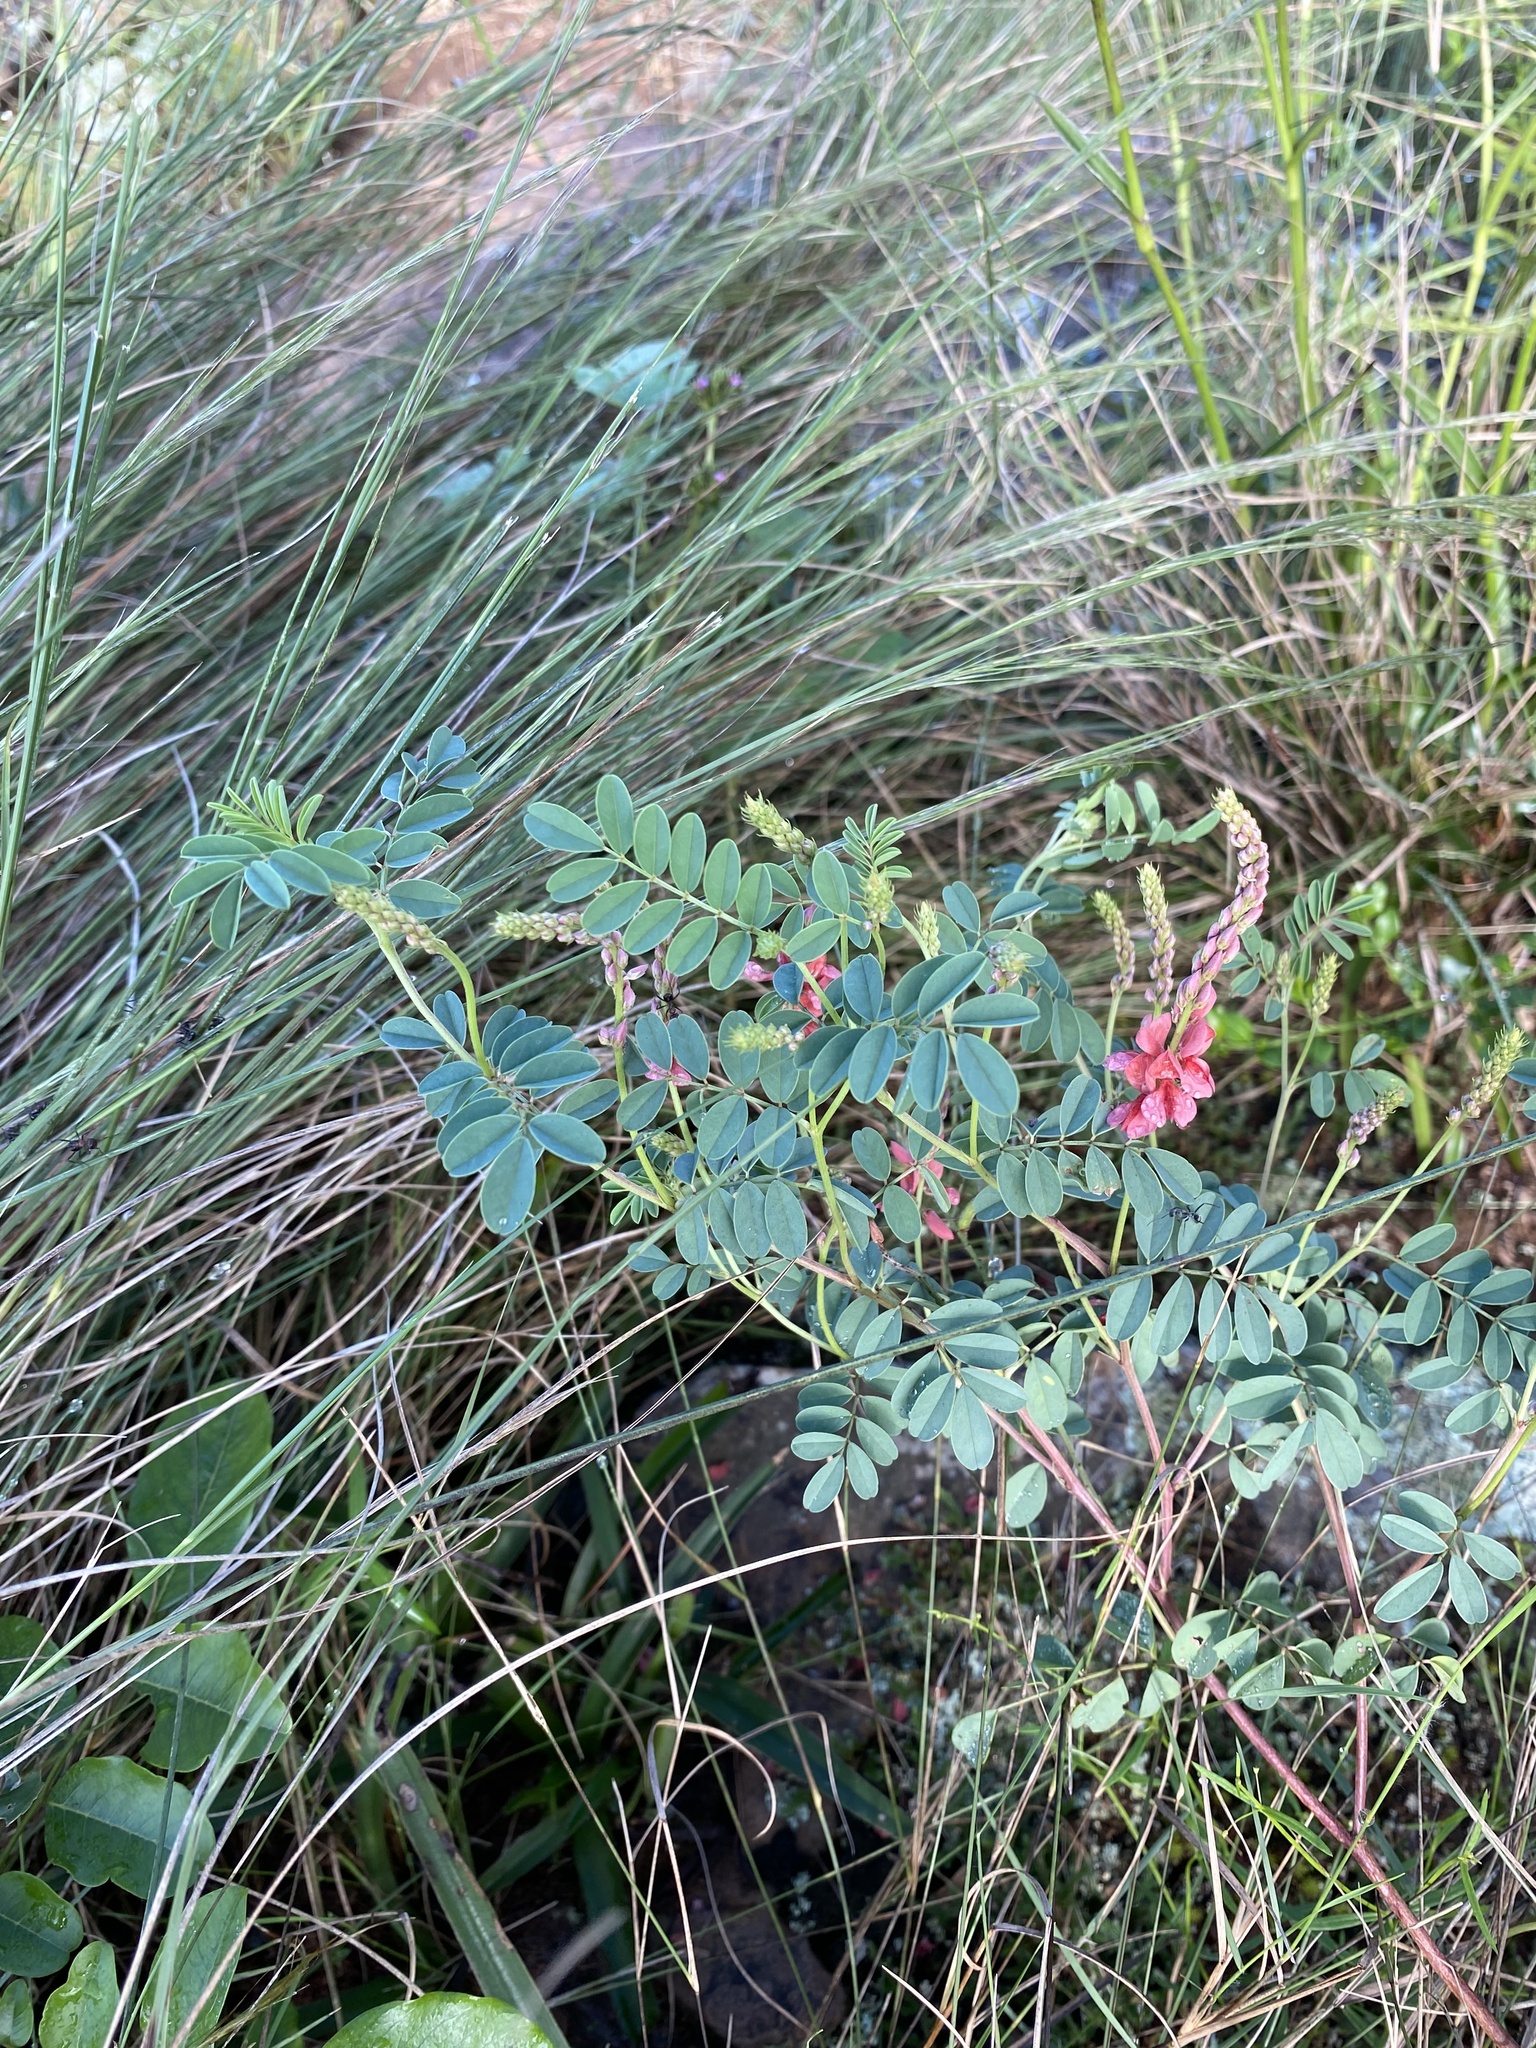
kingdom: Plantae
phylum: Tracheophyta
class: Magnoliopsida
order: Fabales
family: Fabaceae
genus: Indigofera
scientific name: Indigofera williamsonii
